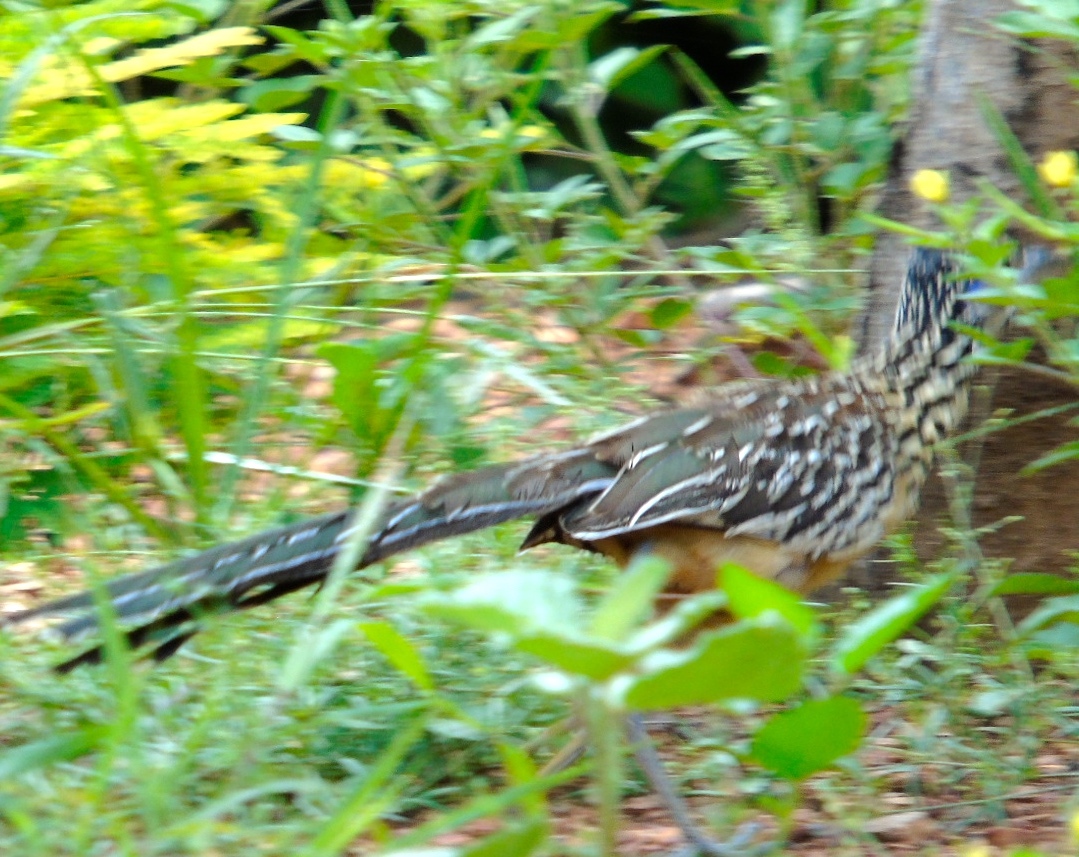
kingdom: Animalia
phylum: Chordata
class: Aves
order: Cuculiformes
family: Cuculidae
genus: Geococcyx
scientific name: Geococcyx velox
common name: Lesser roadrunner
